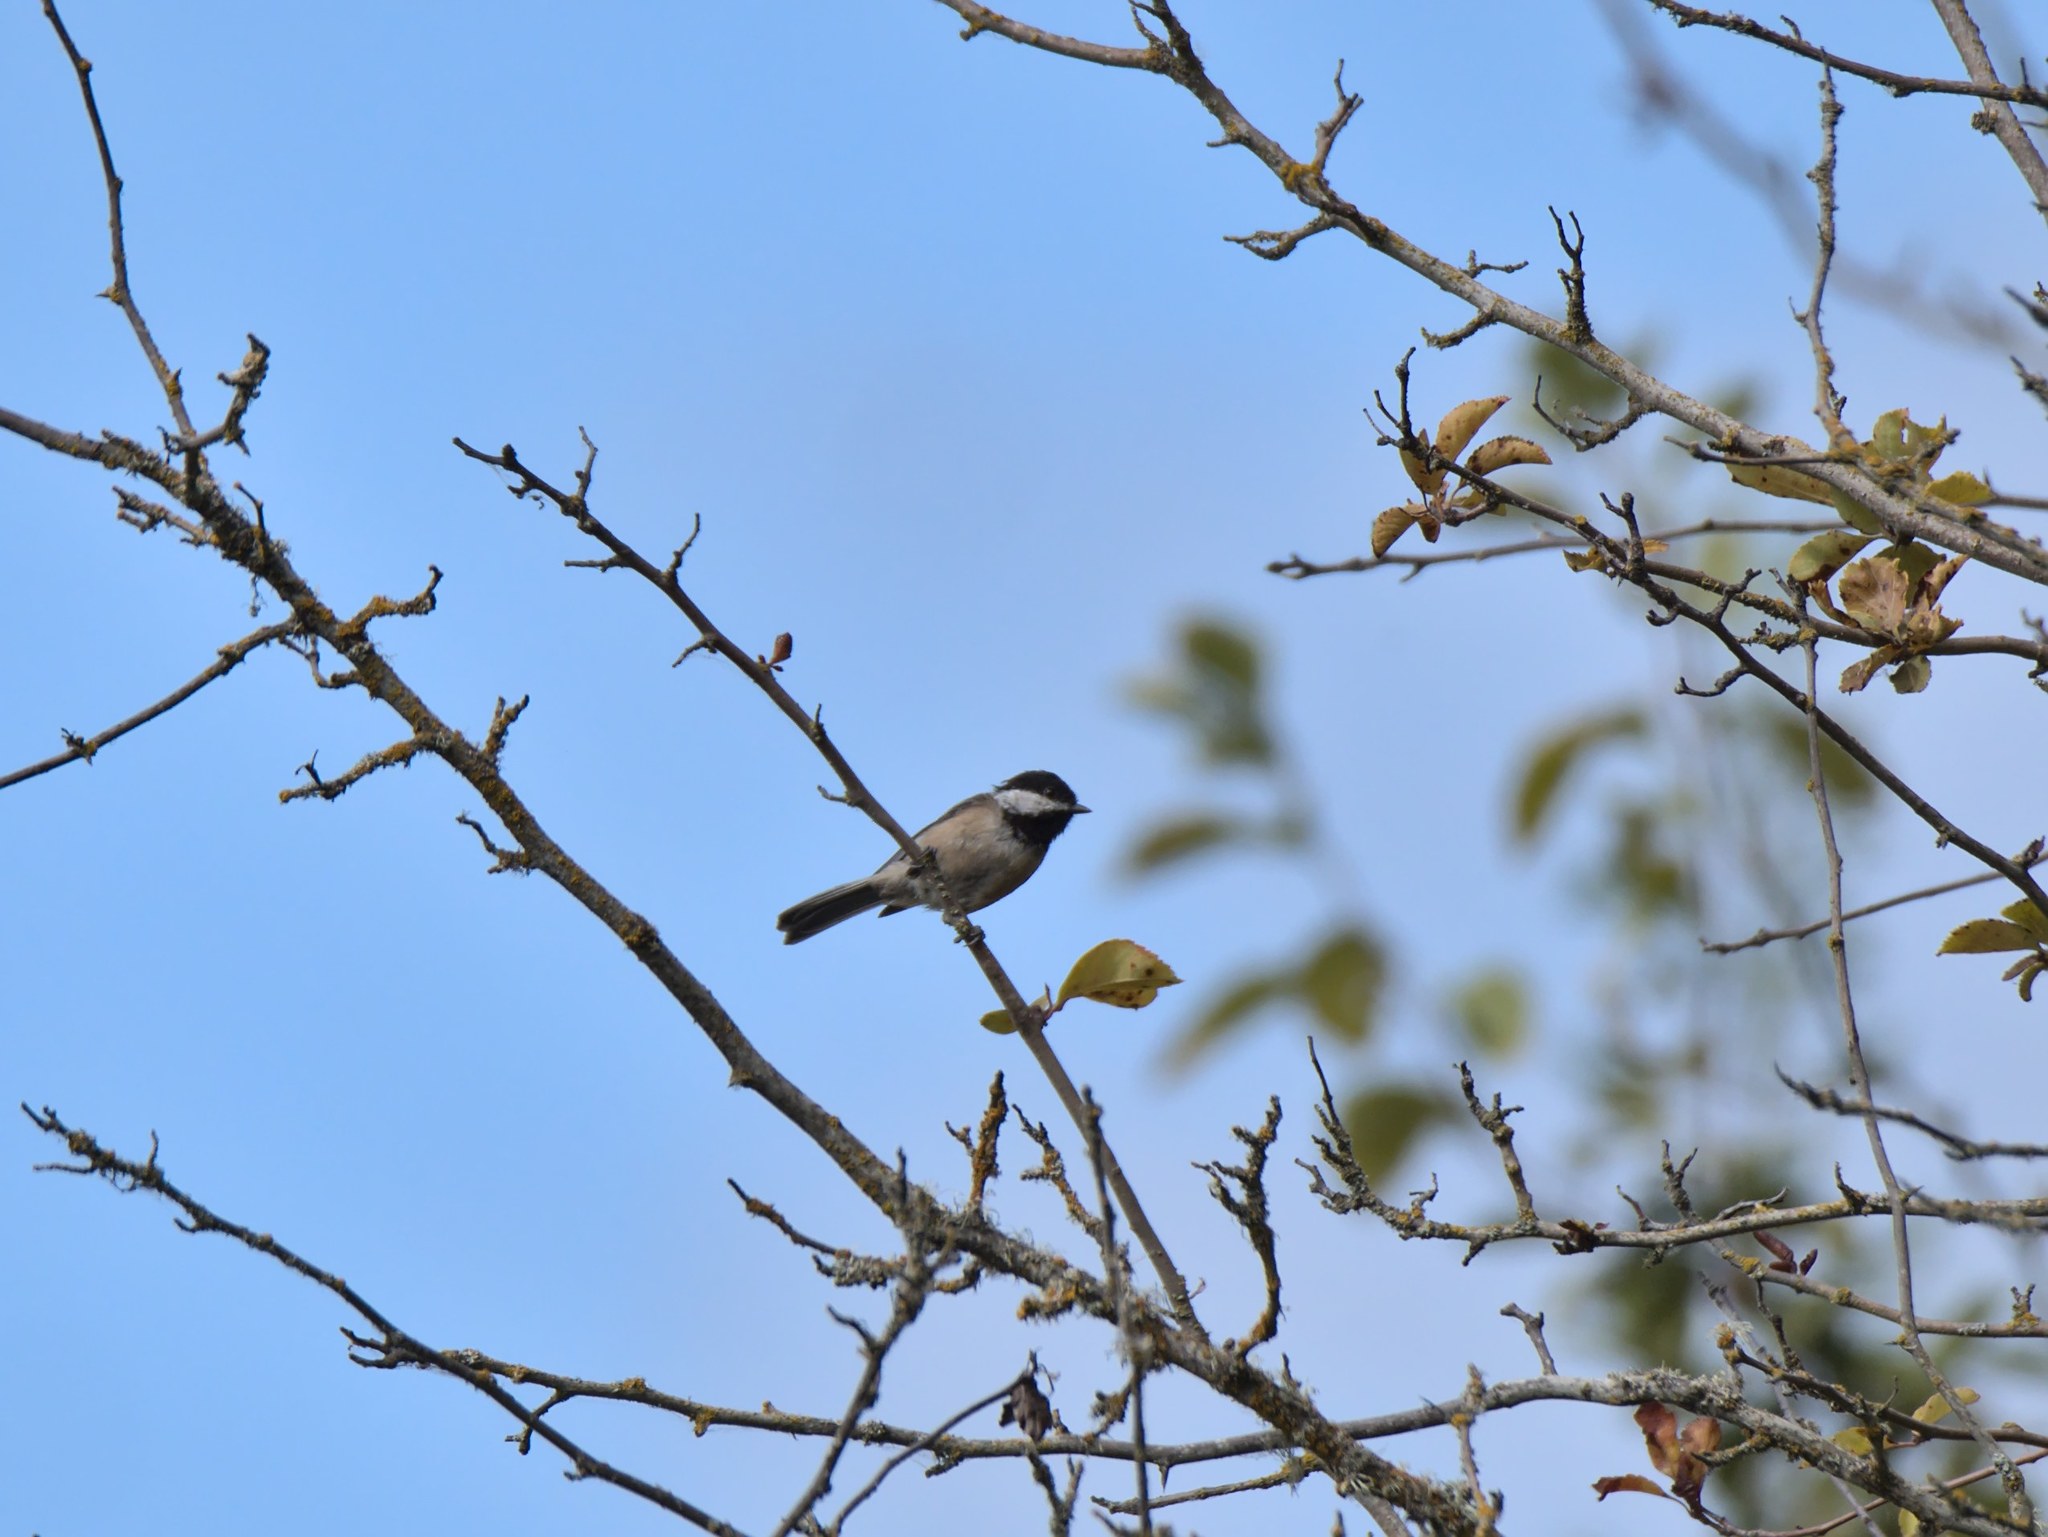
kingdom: Animalia
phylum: Chordata
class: Aves
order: Passeriformes
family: Paridae
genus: Poecile
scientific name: Poecile atricapillus
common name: Black-capped chickadee
